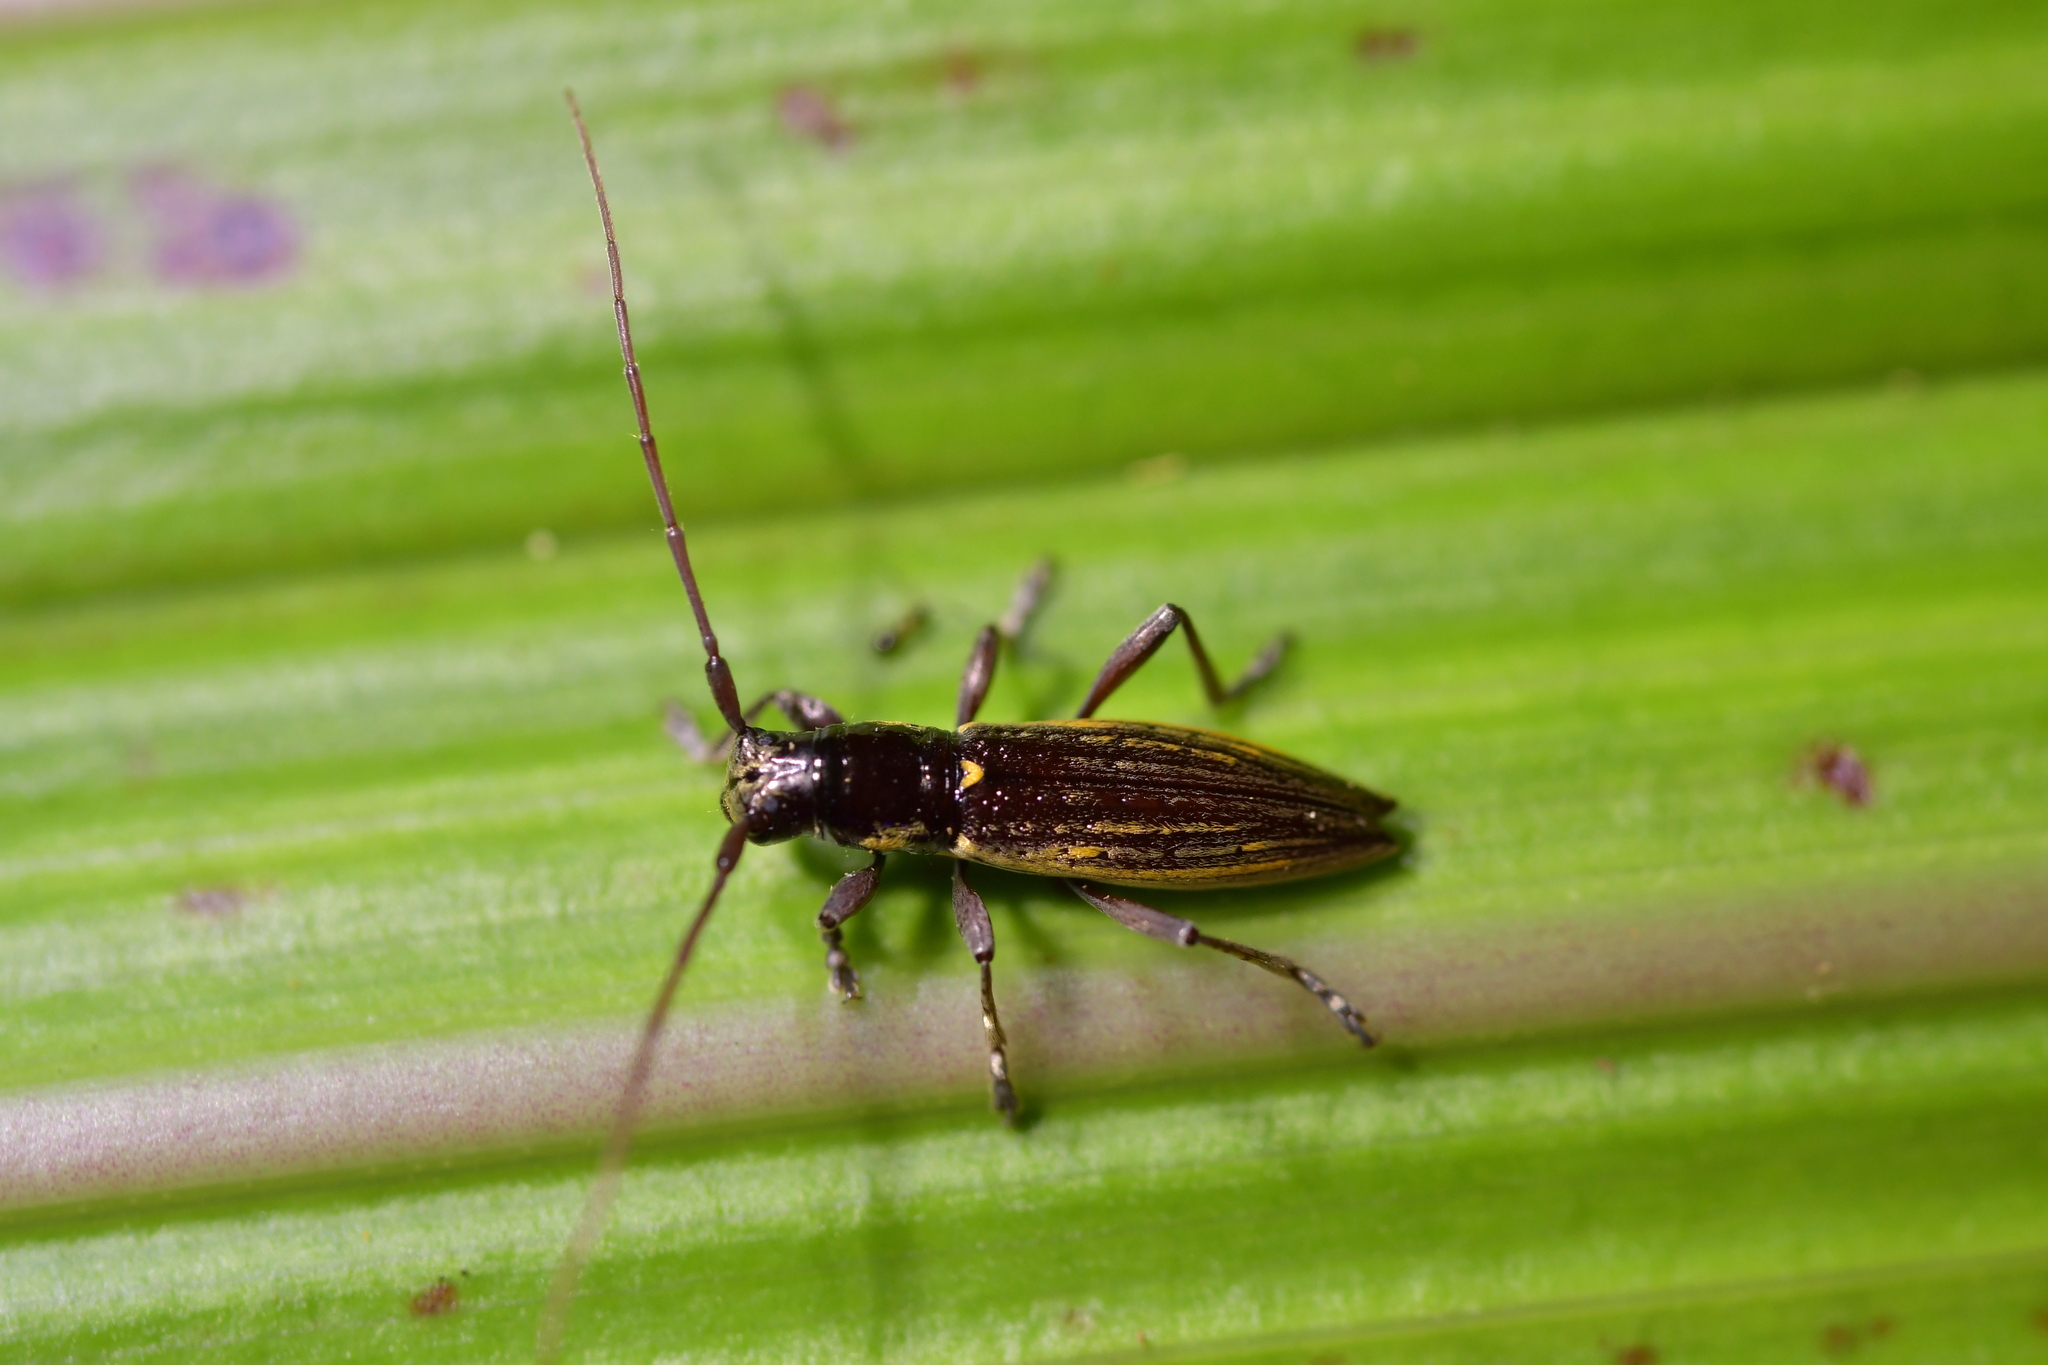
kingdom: Animalia
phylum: Arthropoda
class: Insecta
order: Coleoptera
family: Cerambycidae
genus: Xylotoles
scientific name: Xylotoles lynceus
